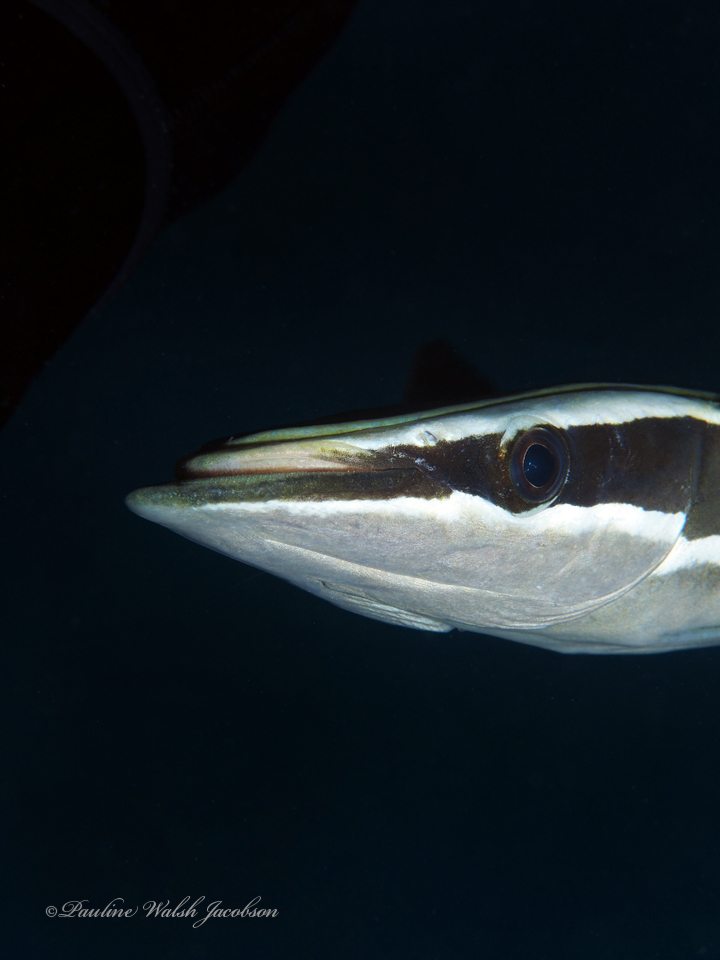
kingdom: Animalia
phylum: Chordata
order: Perciformes
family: Echeneidae
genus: Echeneis
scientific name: Echeneis naucrates
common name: Sharksucker
